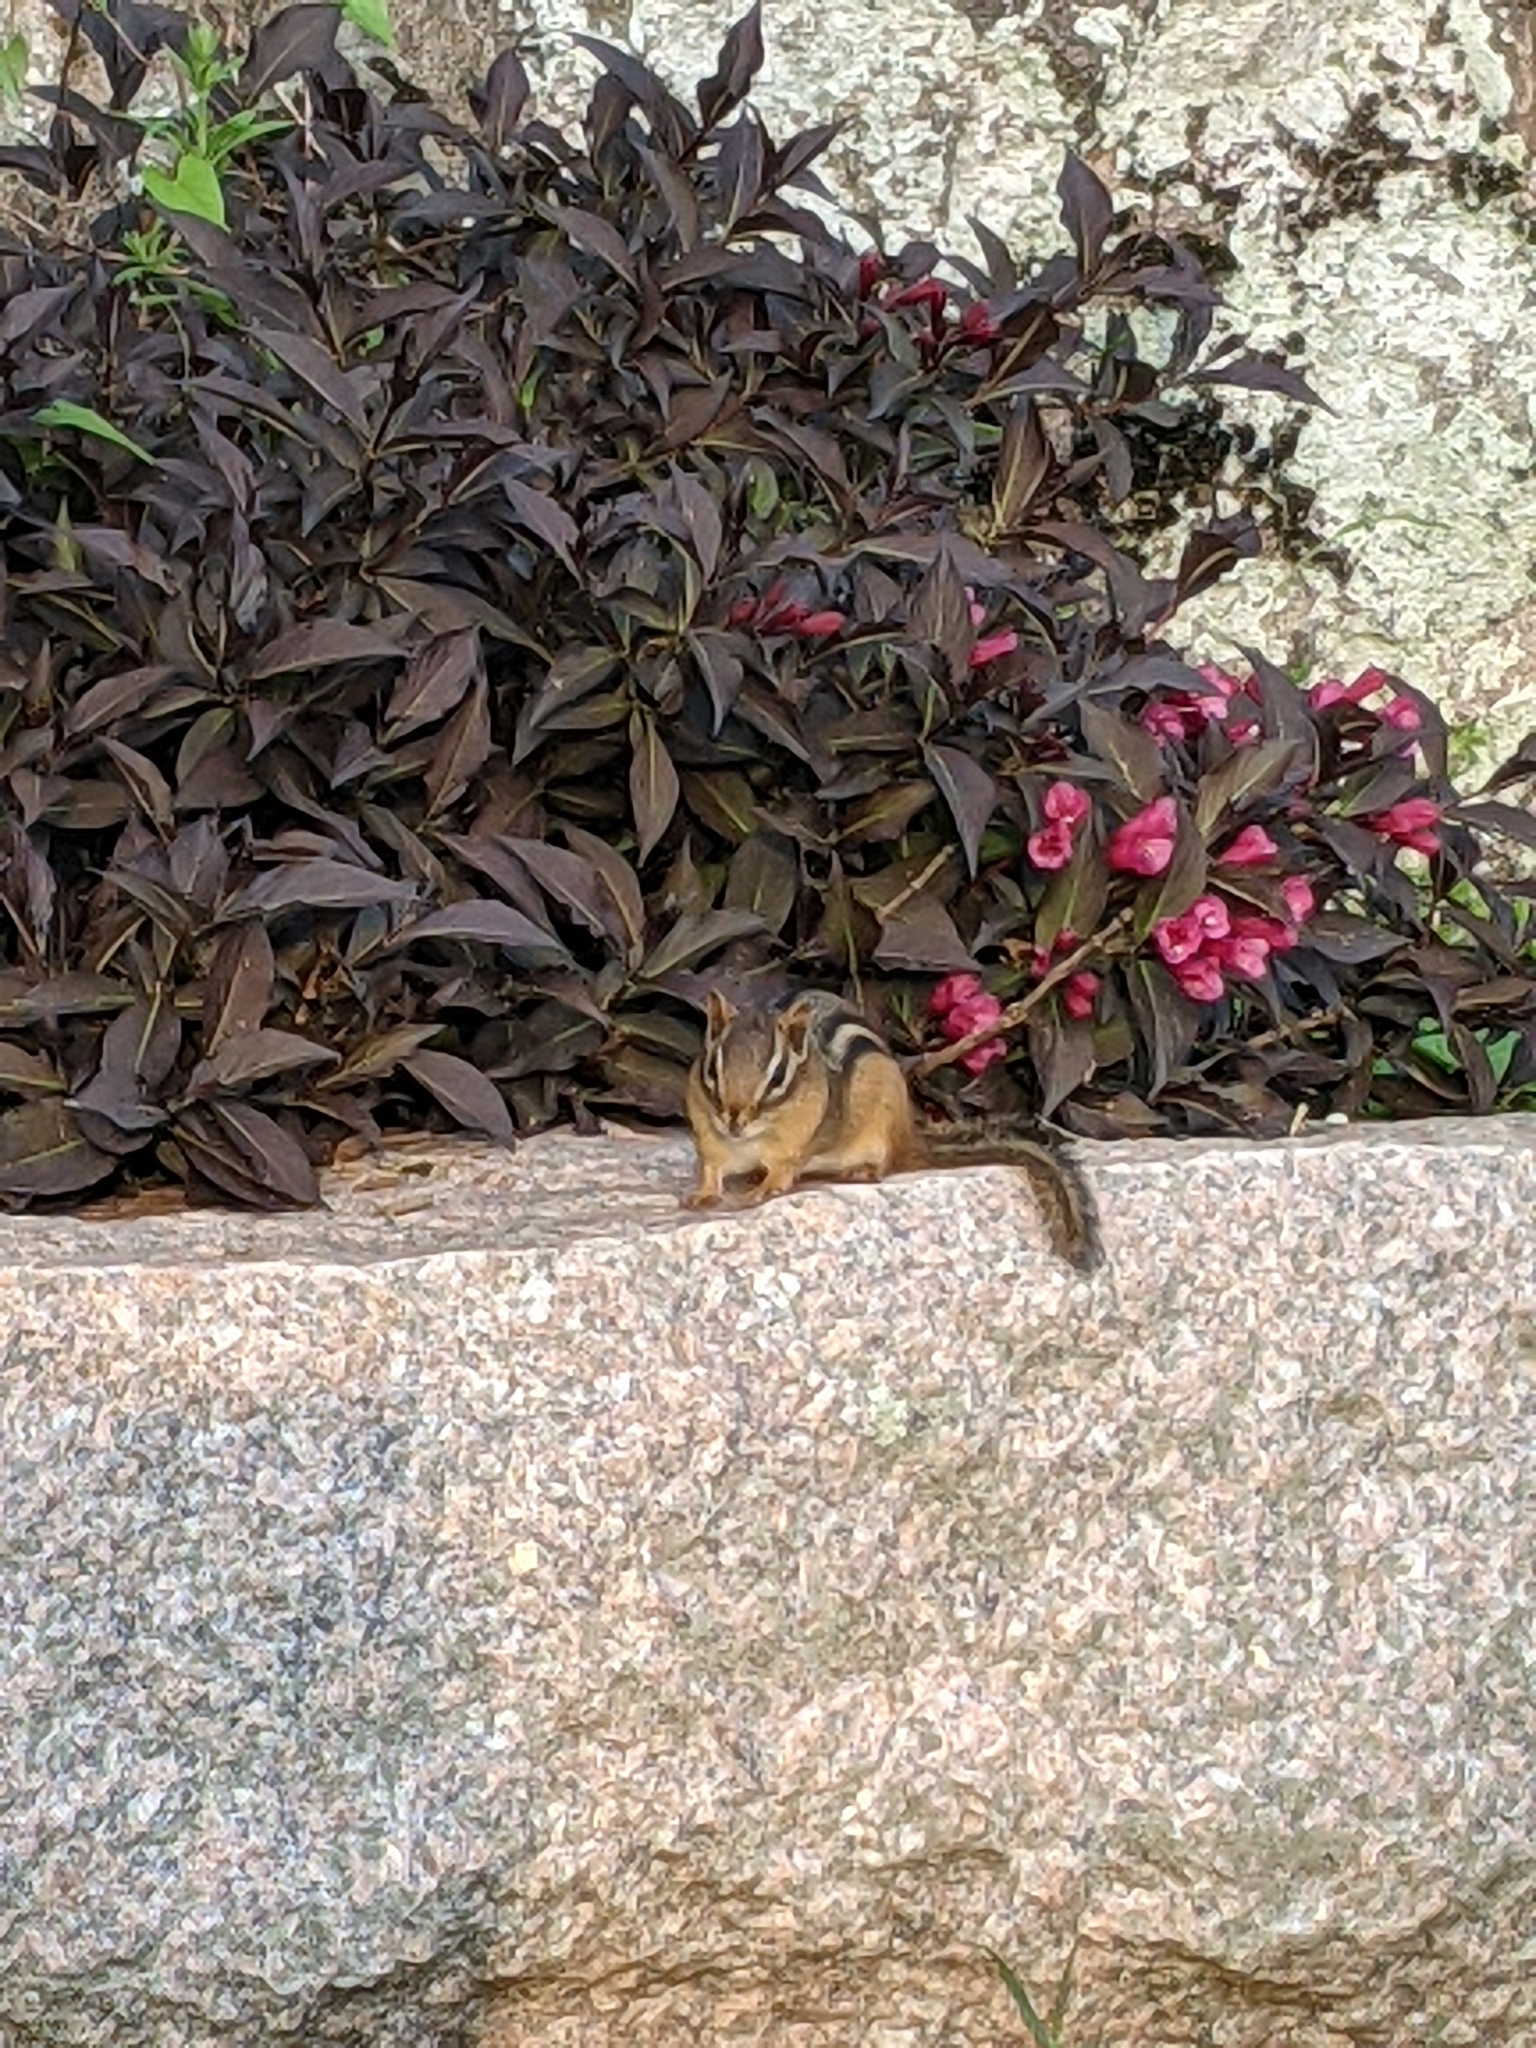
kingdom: Animalia
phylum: Chordata
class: Mammalia
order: Rodentia
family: Sciuridae
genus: Tamias
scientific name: Tamias striatus
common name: Eastern chipmunk
